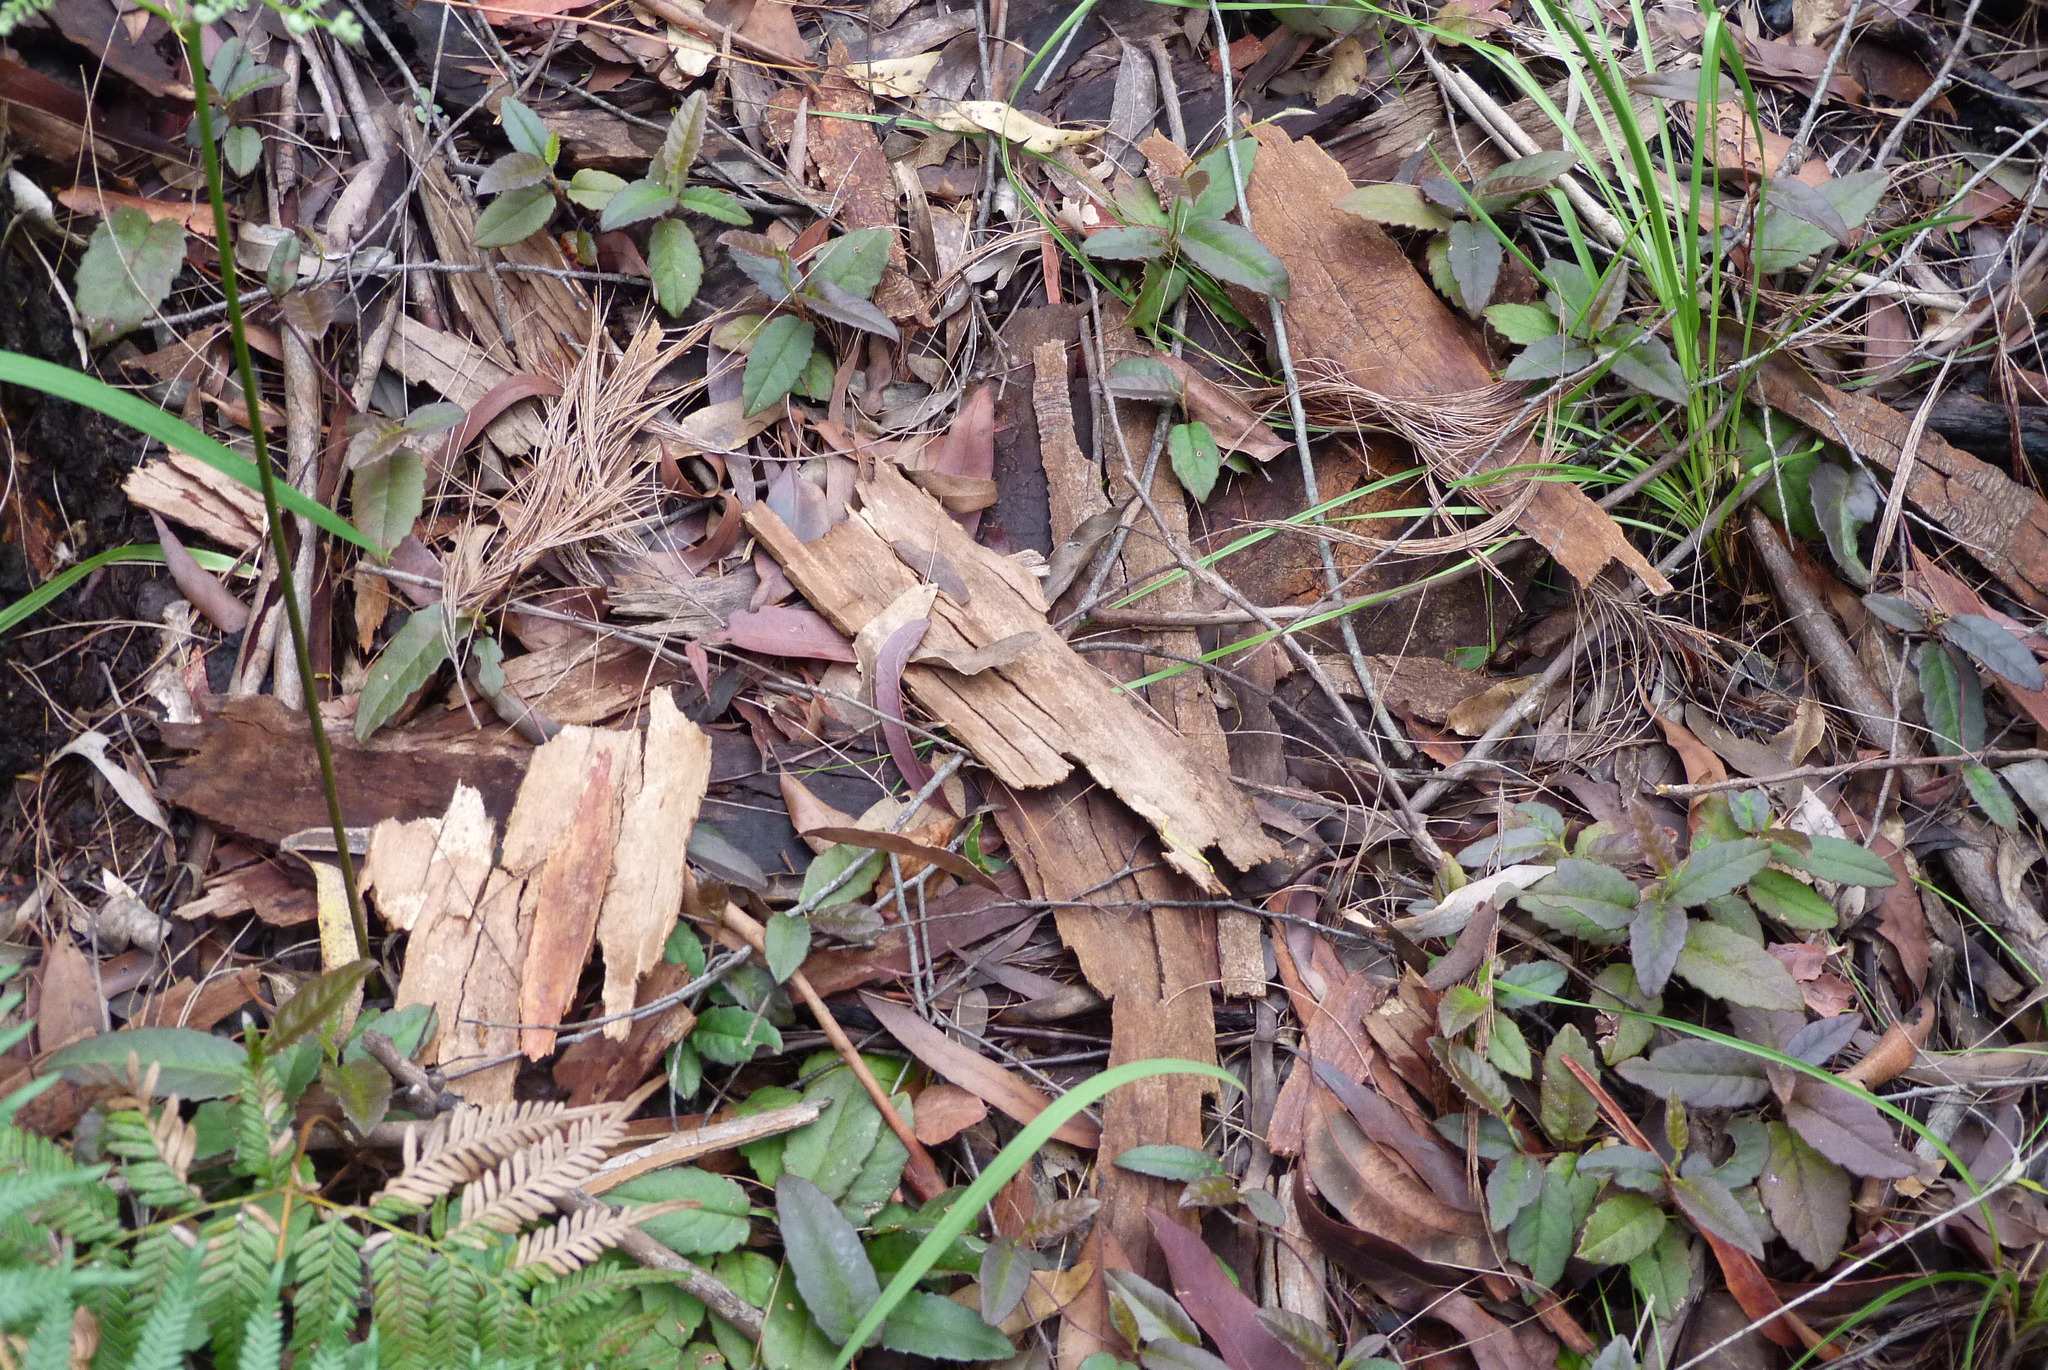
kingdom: Plantae
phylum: Tracheophyta
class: Magnoliopsida
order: Dilleniales
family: Dilleniaceae
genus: Hibbertia
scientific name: Hibbertia dentata
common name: Trailing guinea-flower
